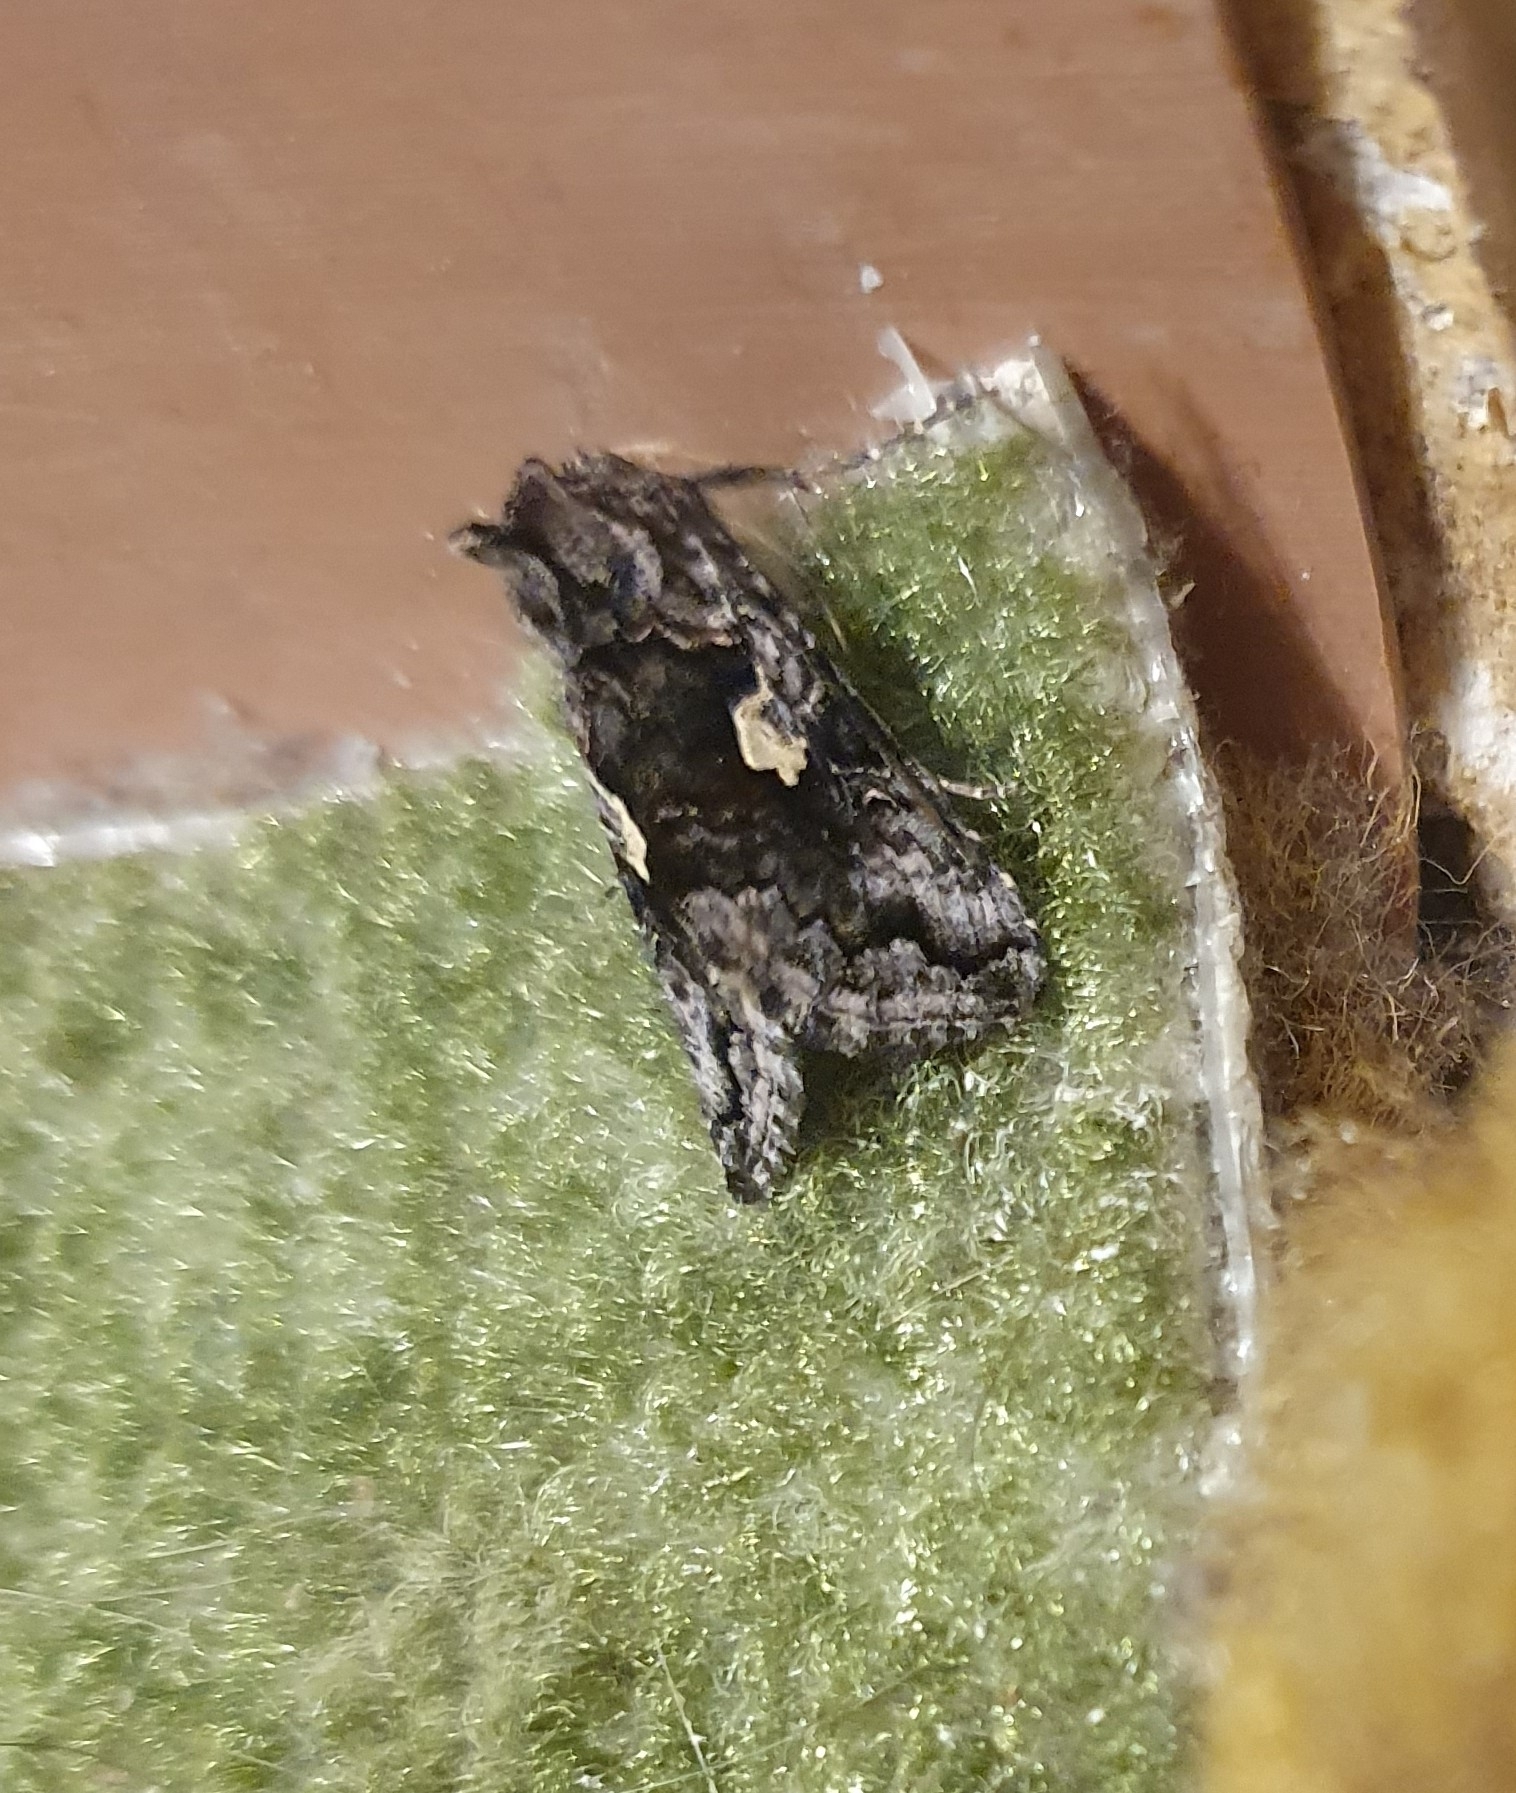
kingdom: Animalia
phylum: Arthropoda
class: Insecta
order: Lepidoptera
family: Noctuidae
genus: Syngrapha
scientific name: Syngrapha interrogationis
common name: Scarce silver y
